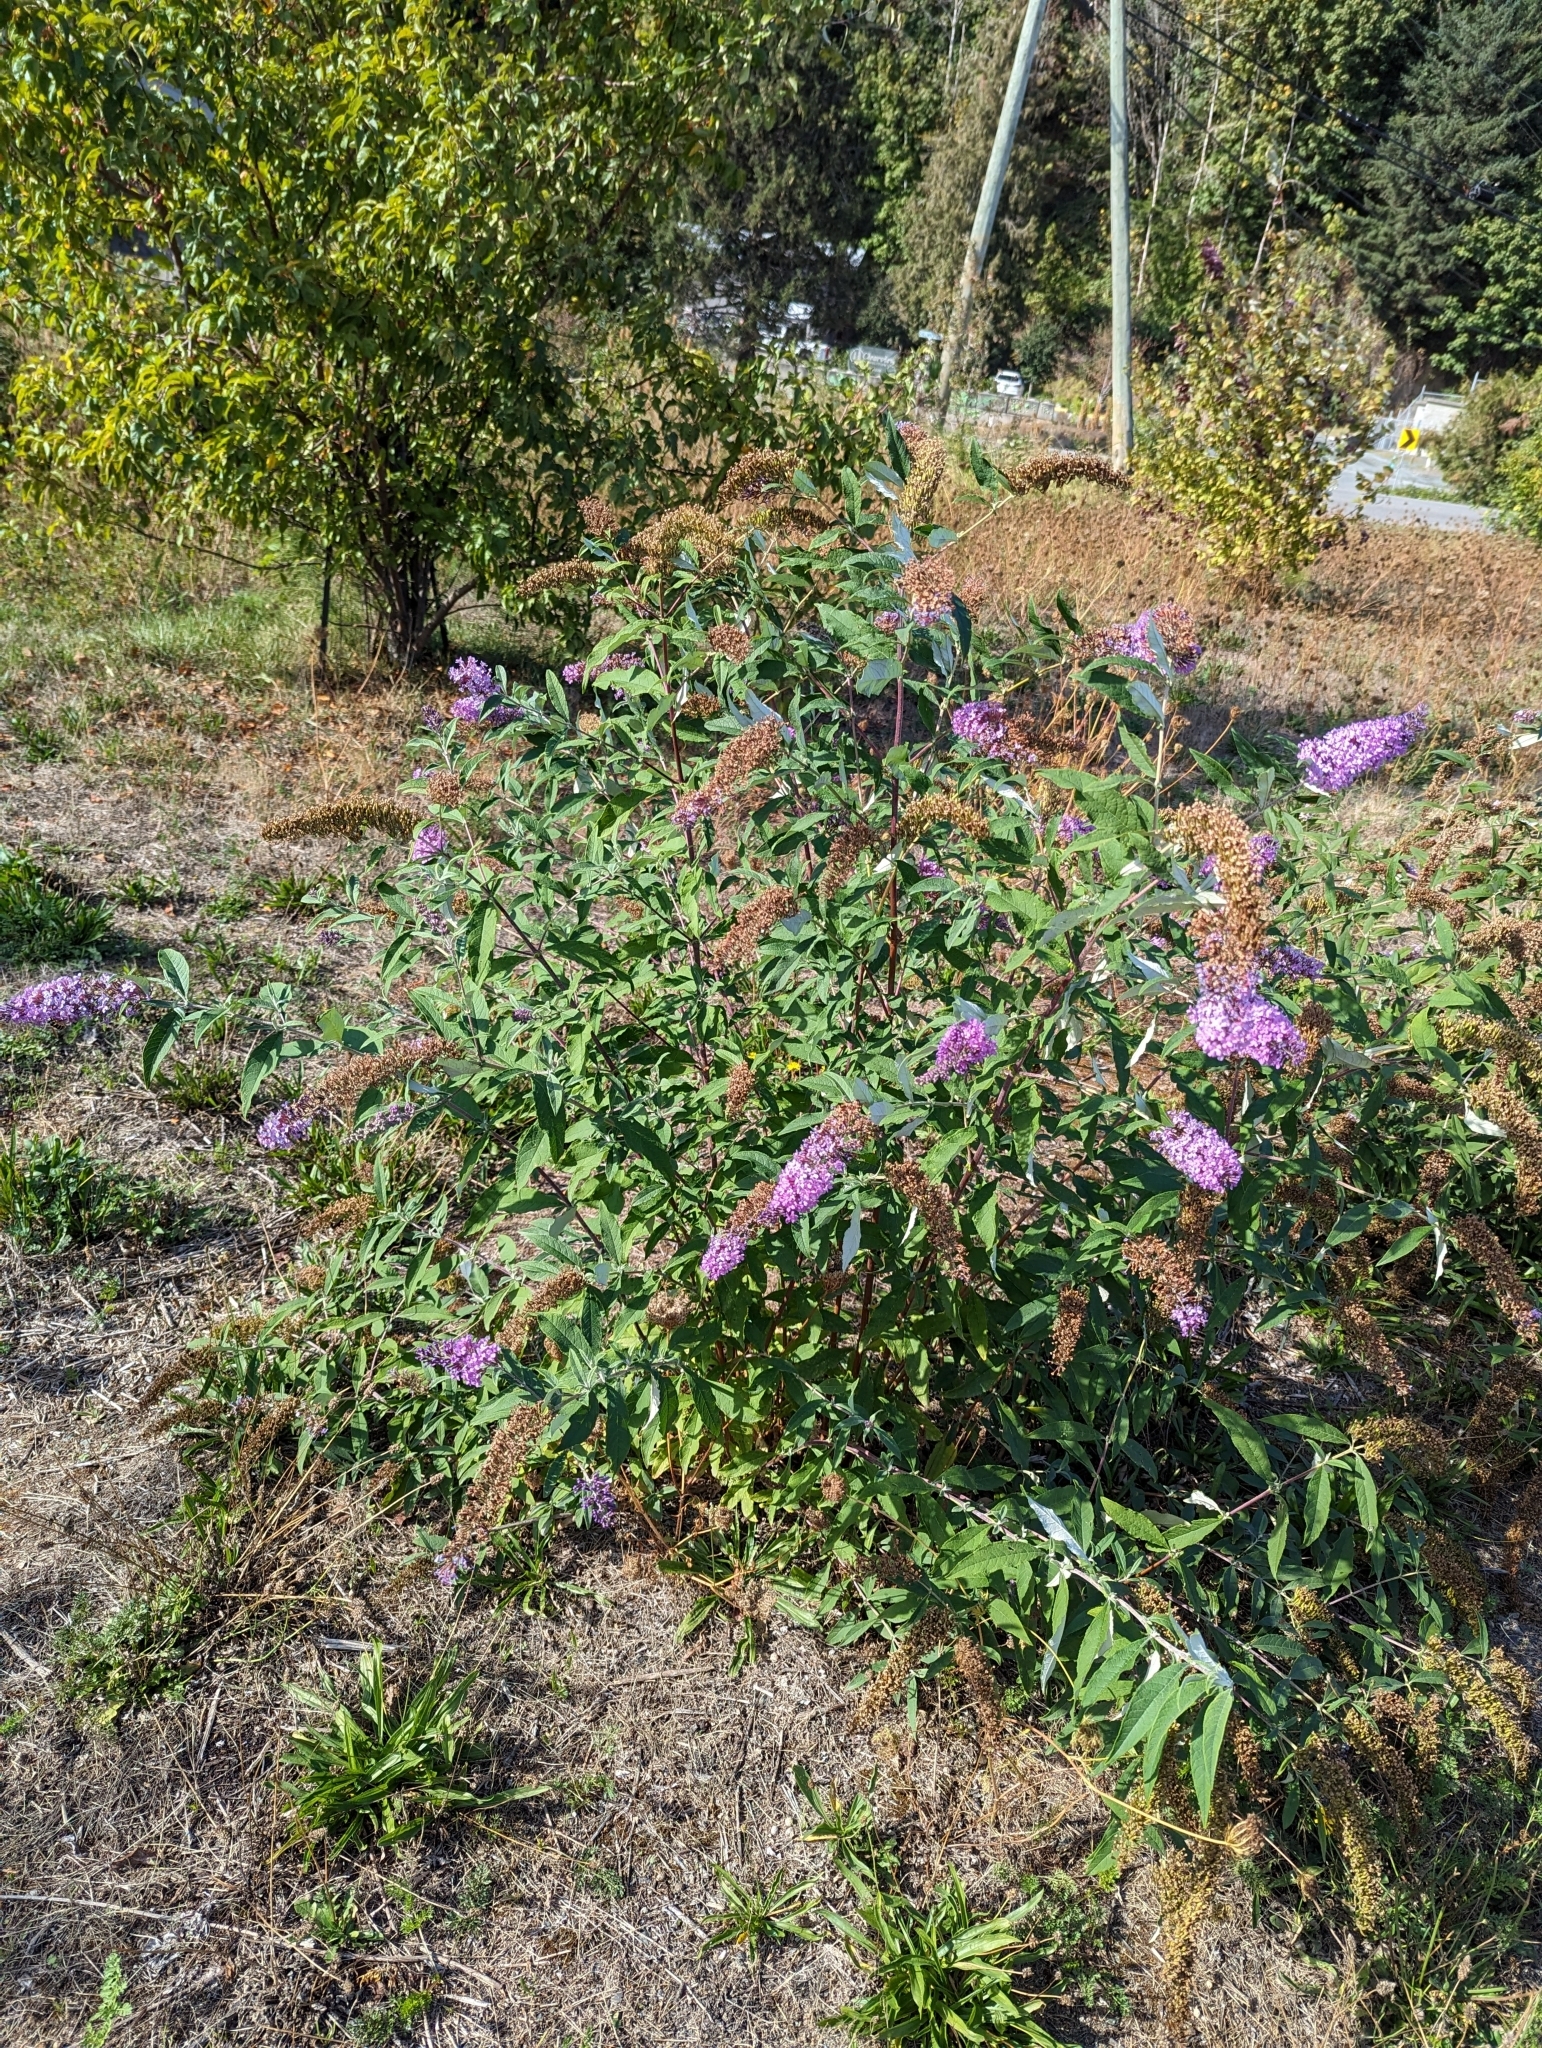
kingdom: Plantae
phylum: Tracheophyta
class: Magnoliopsida
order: Lamiales
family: Scrophulariaceae
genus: Buddleja
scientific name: Buddleja davidii
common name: Butterfly-bush
